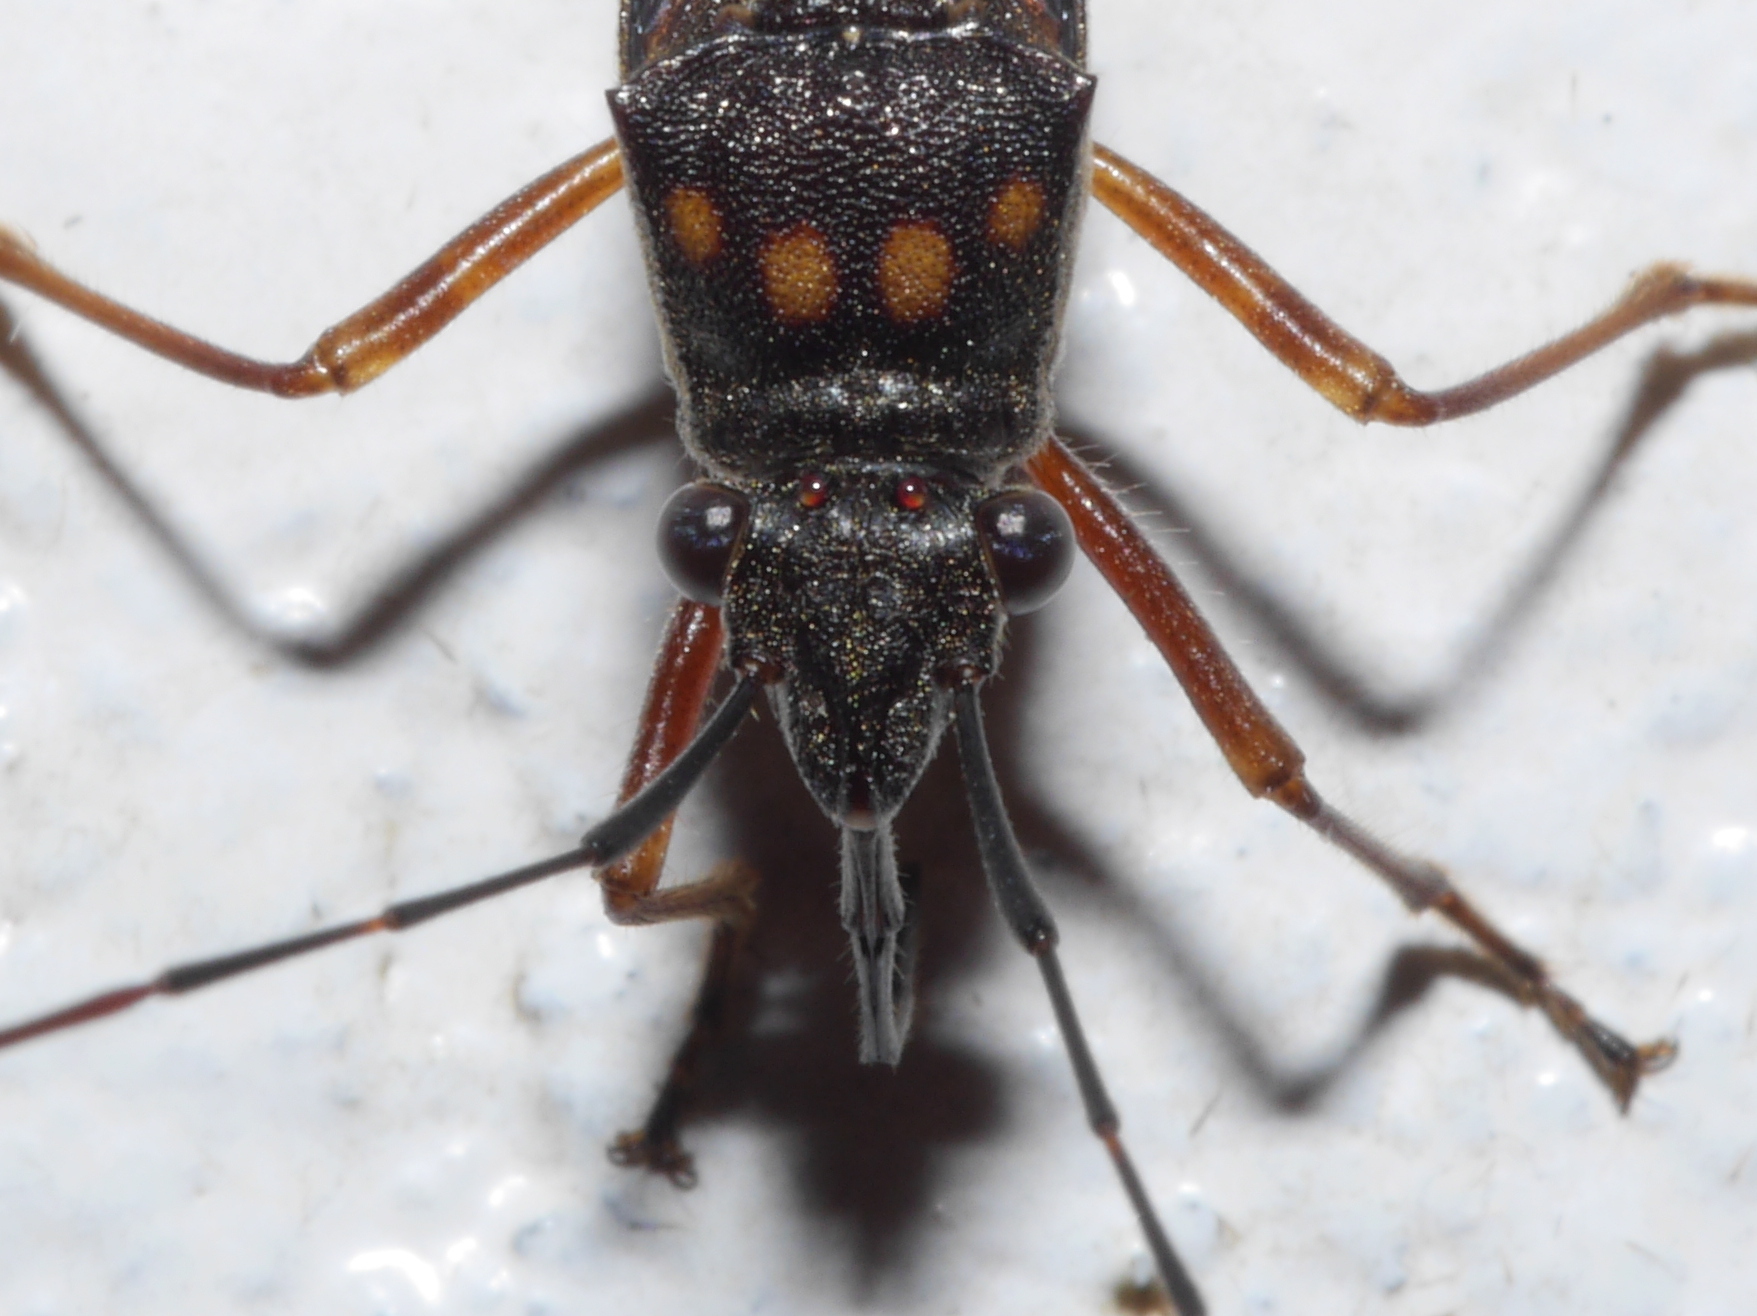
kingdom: Animalia
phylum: Arthropoda
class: Insecta
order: Hemiptera
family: Alydidae
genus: Tupalus
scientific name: Tupalus maculatus
